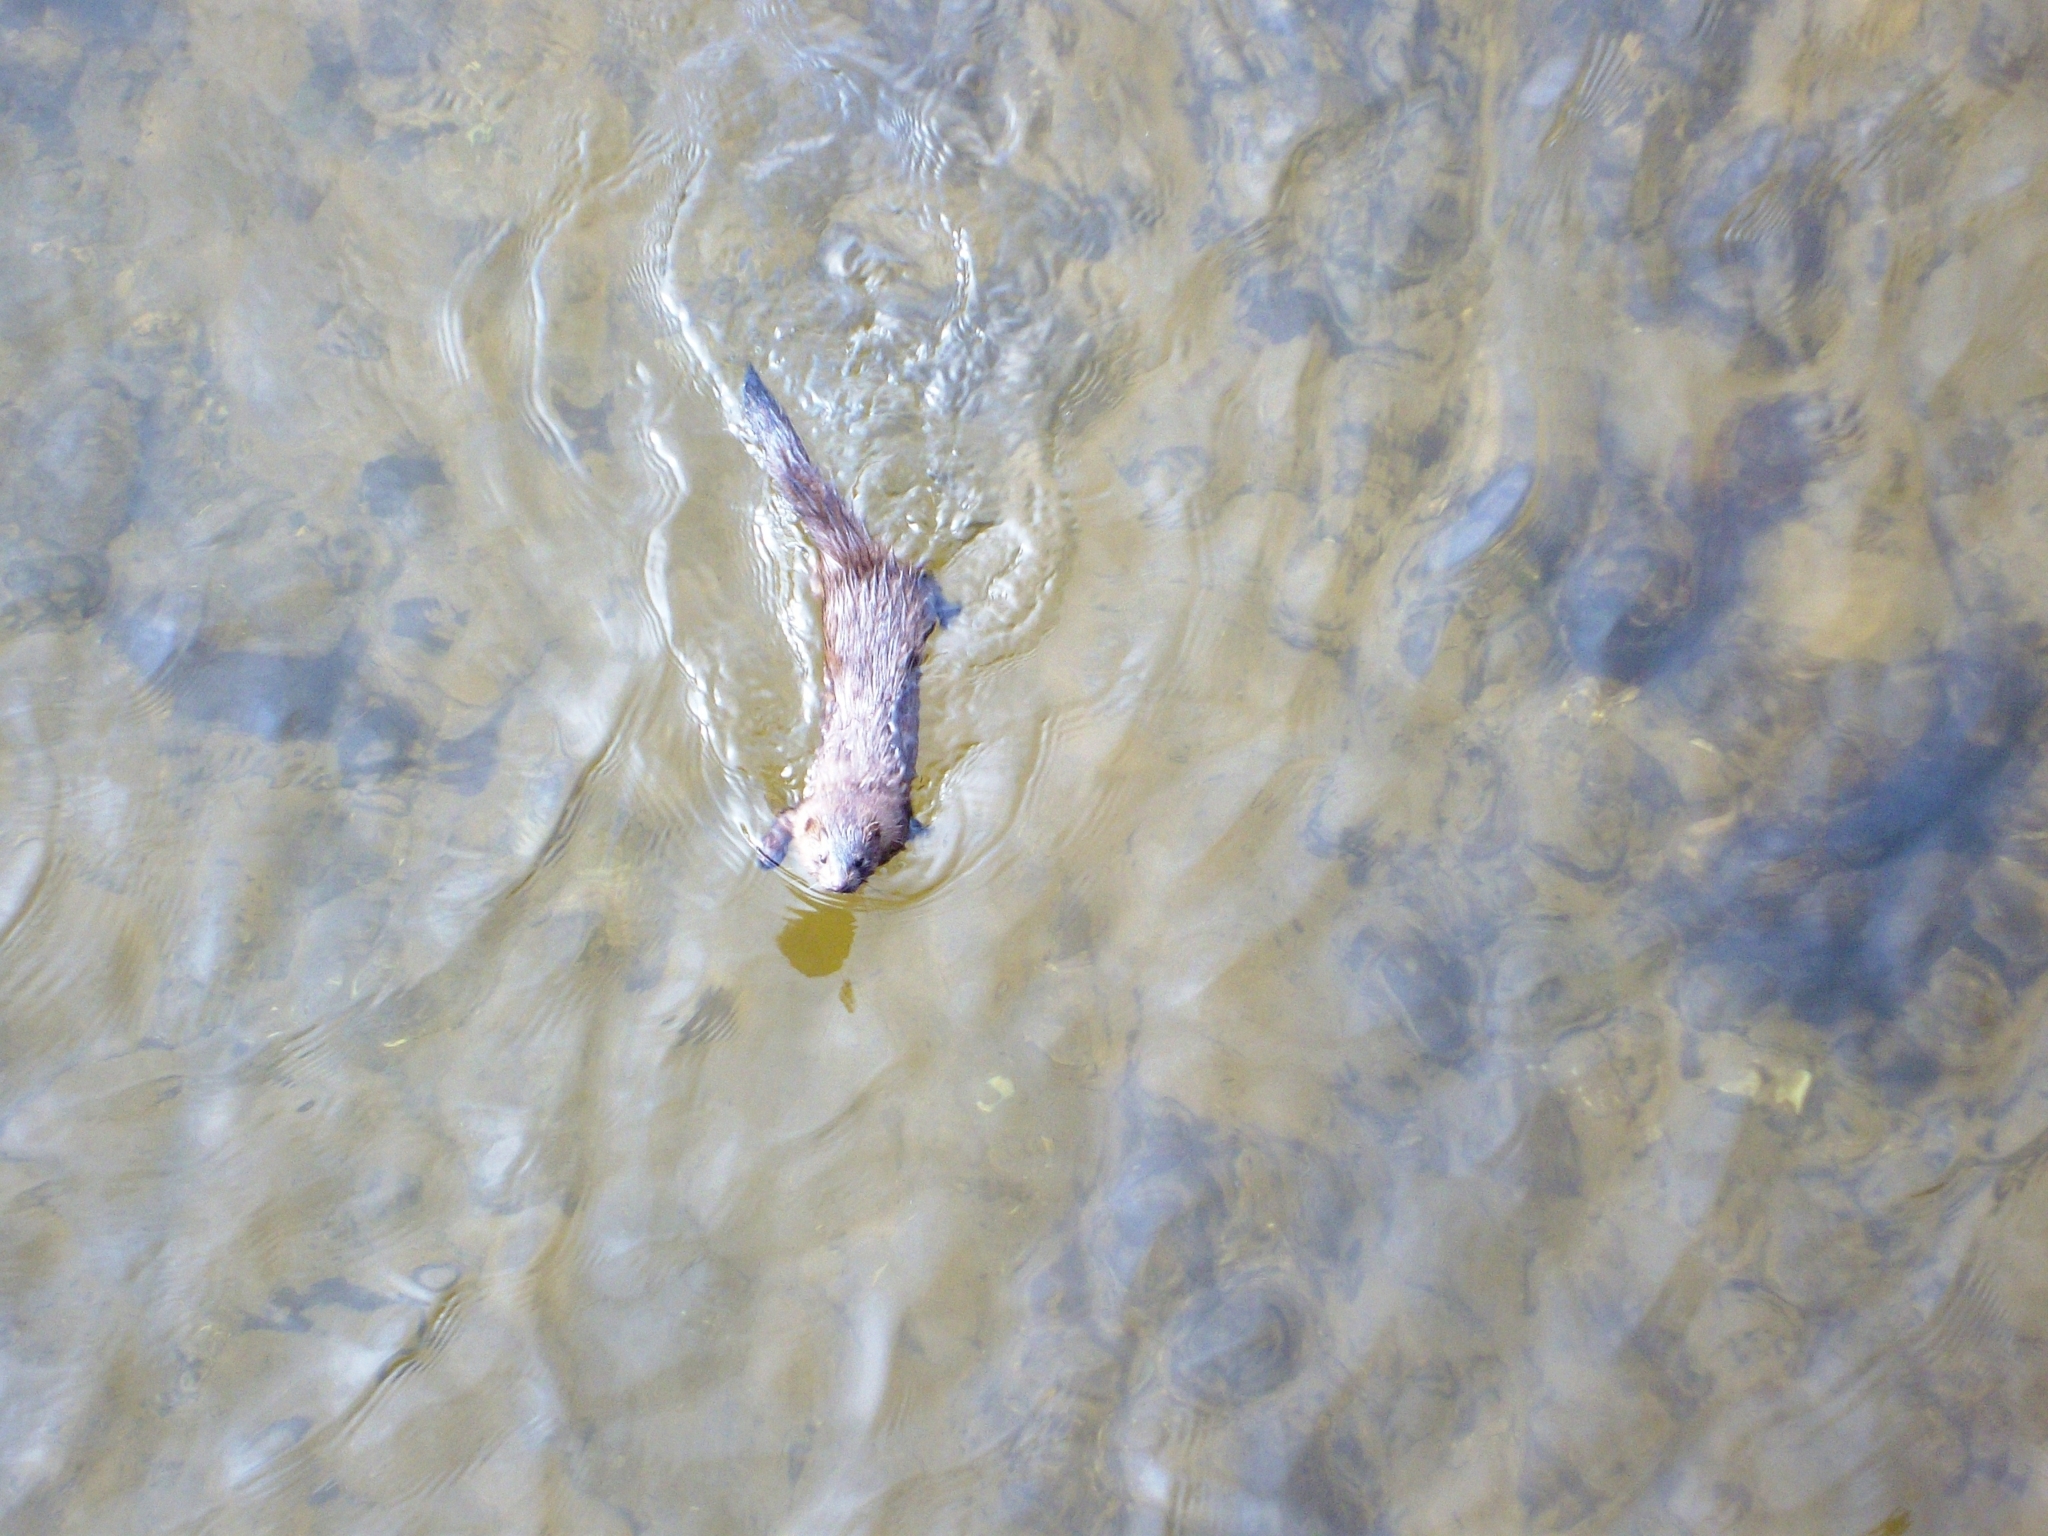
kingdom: Animalia
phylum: Chordata
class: Mammalia
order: Carnivora
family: Mustelidae
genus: Mustela
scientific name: Mustela
